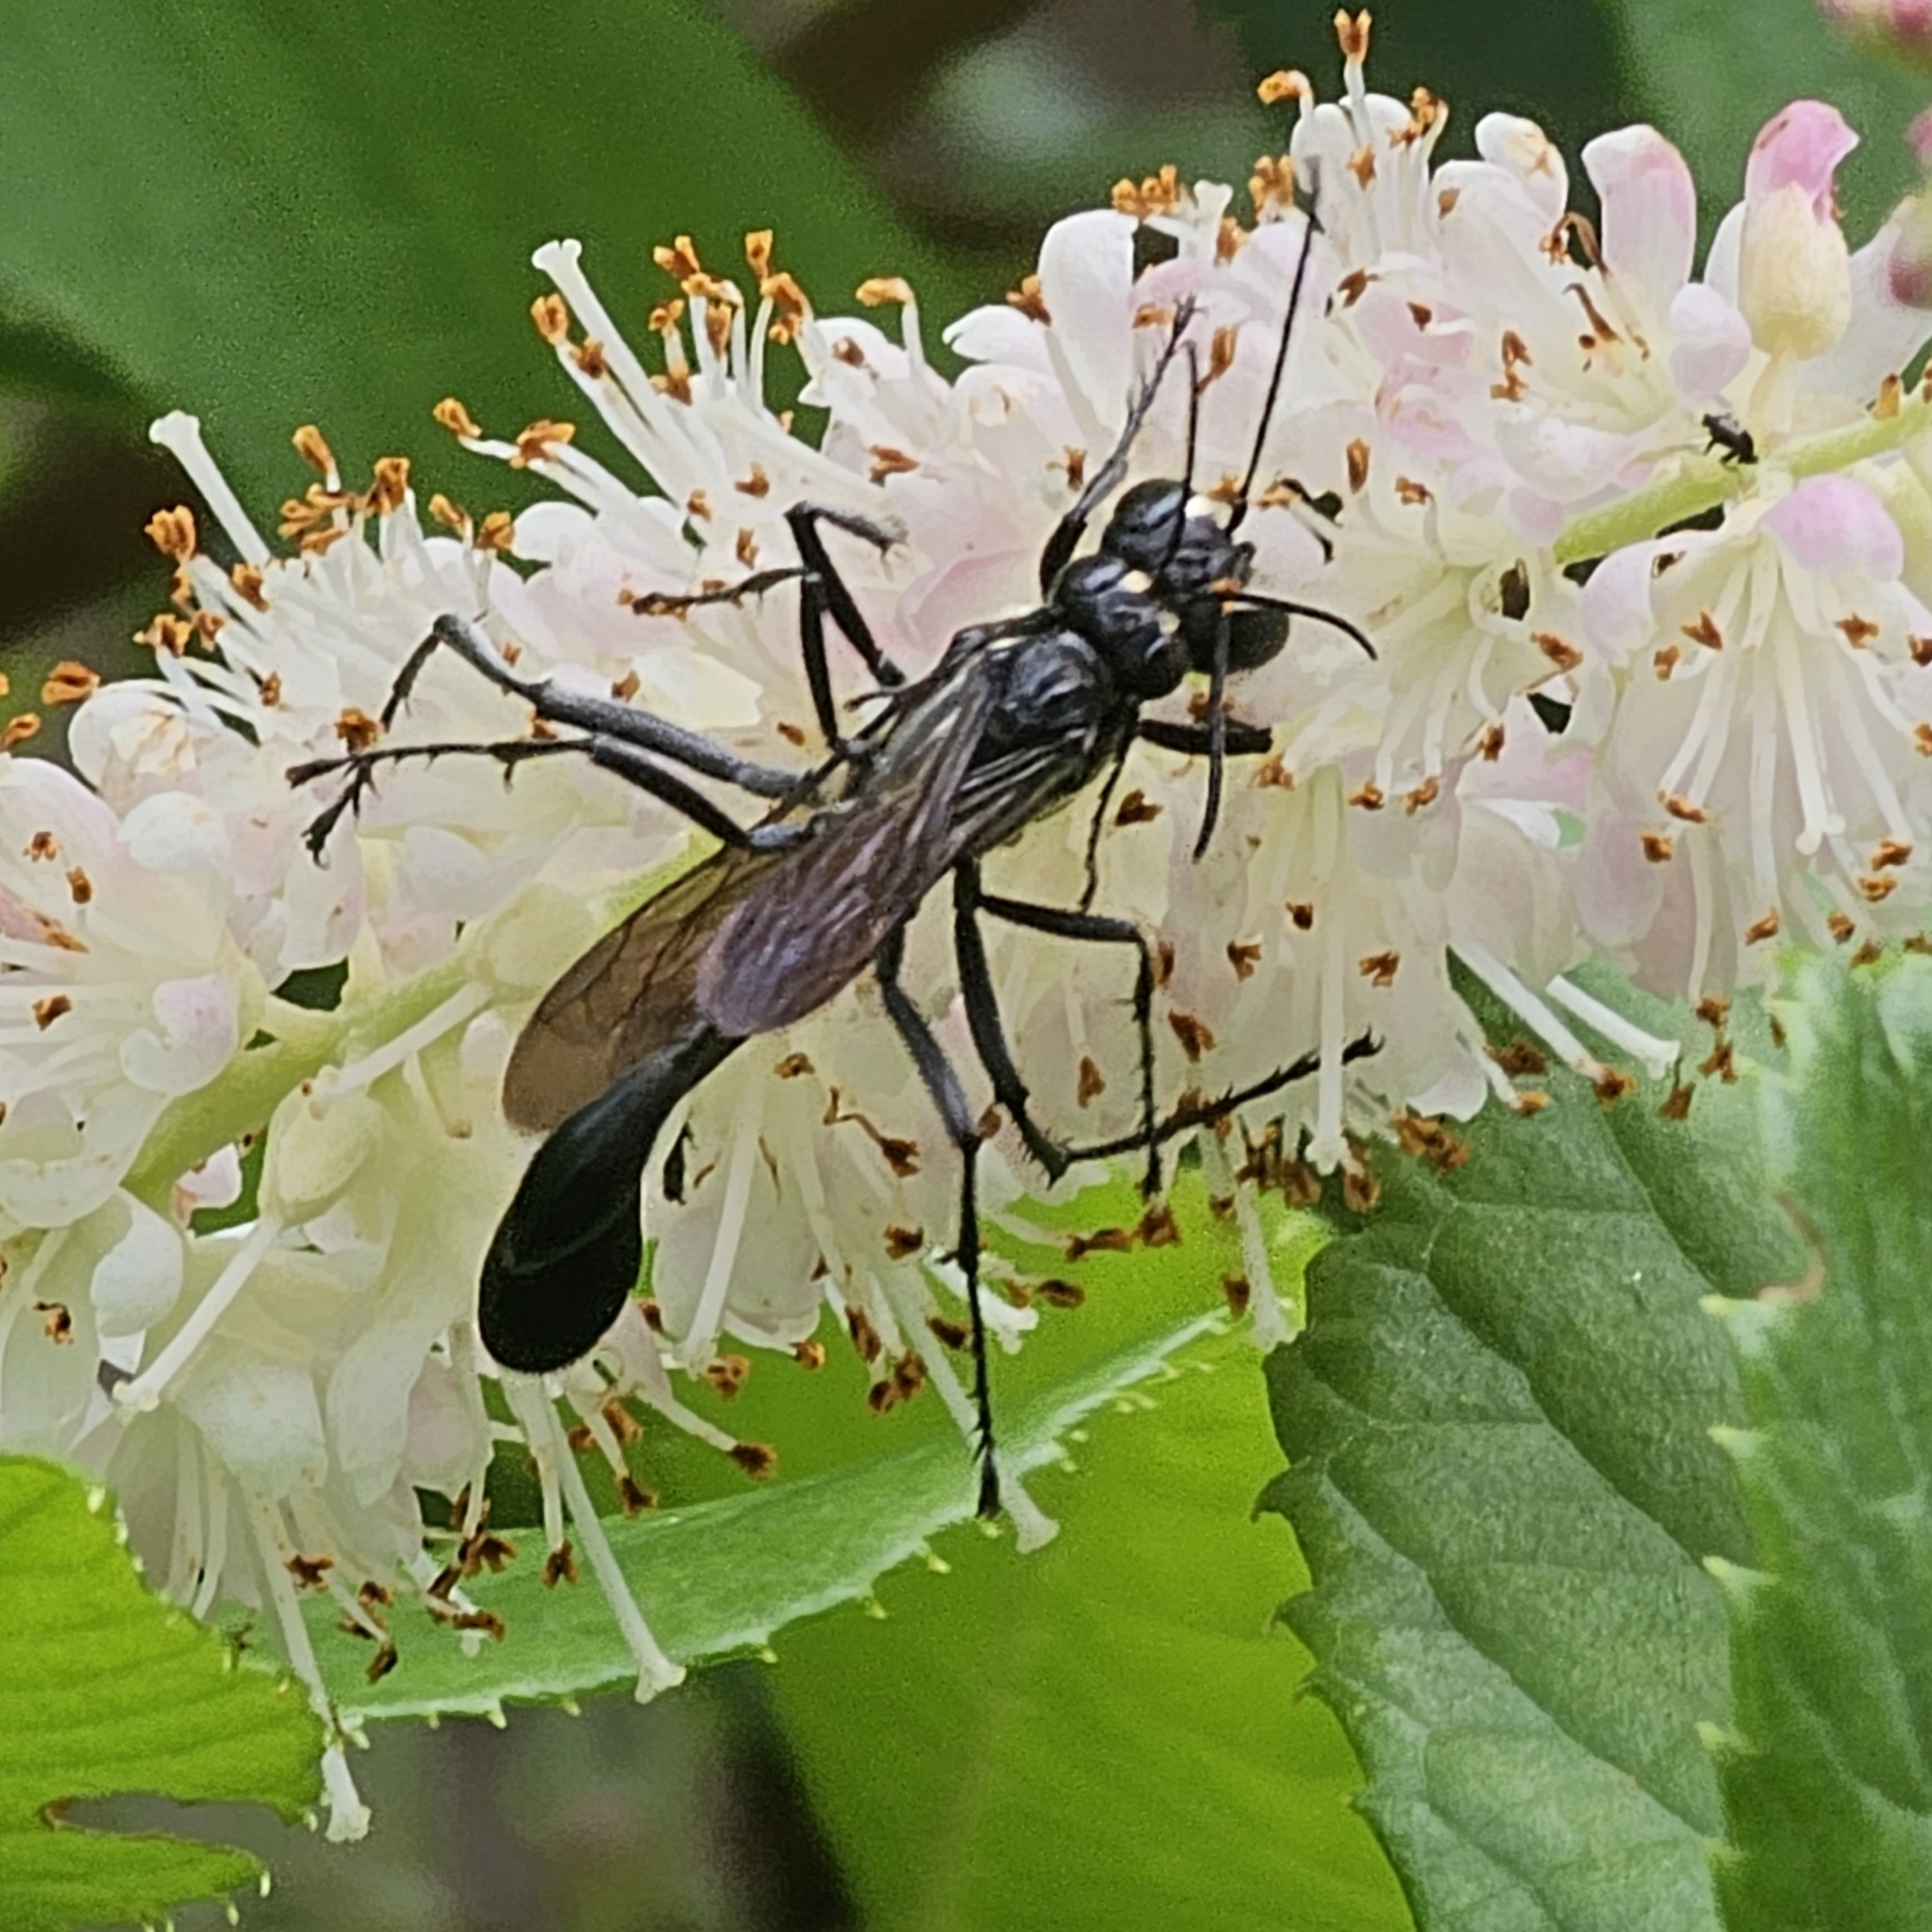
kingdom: Animalia
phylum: Arthropoda
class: Insecta
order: Hymenoptera
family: Sphecidae
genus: Eremnophila
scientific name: Eremnophila aureonotata
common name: Gold-marked thread-waisted wasp
